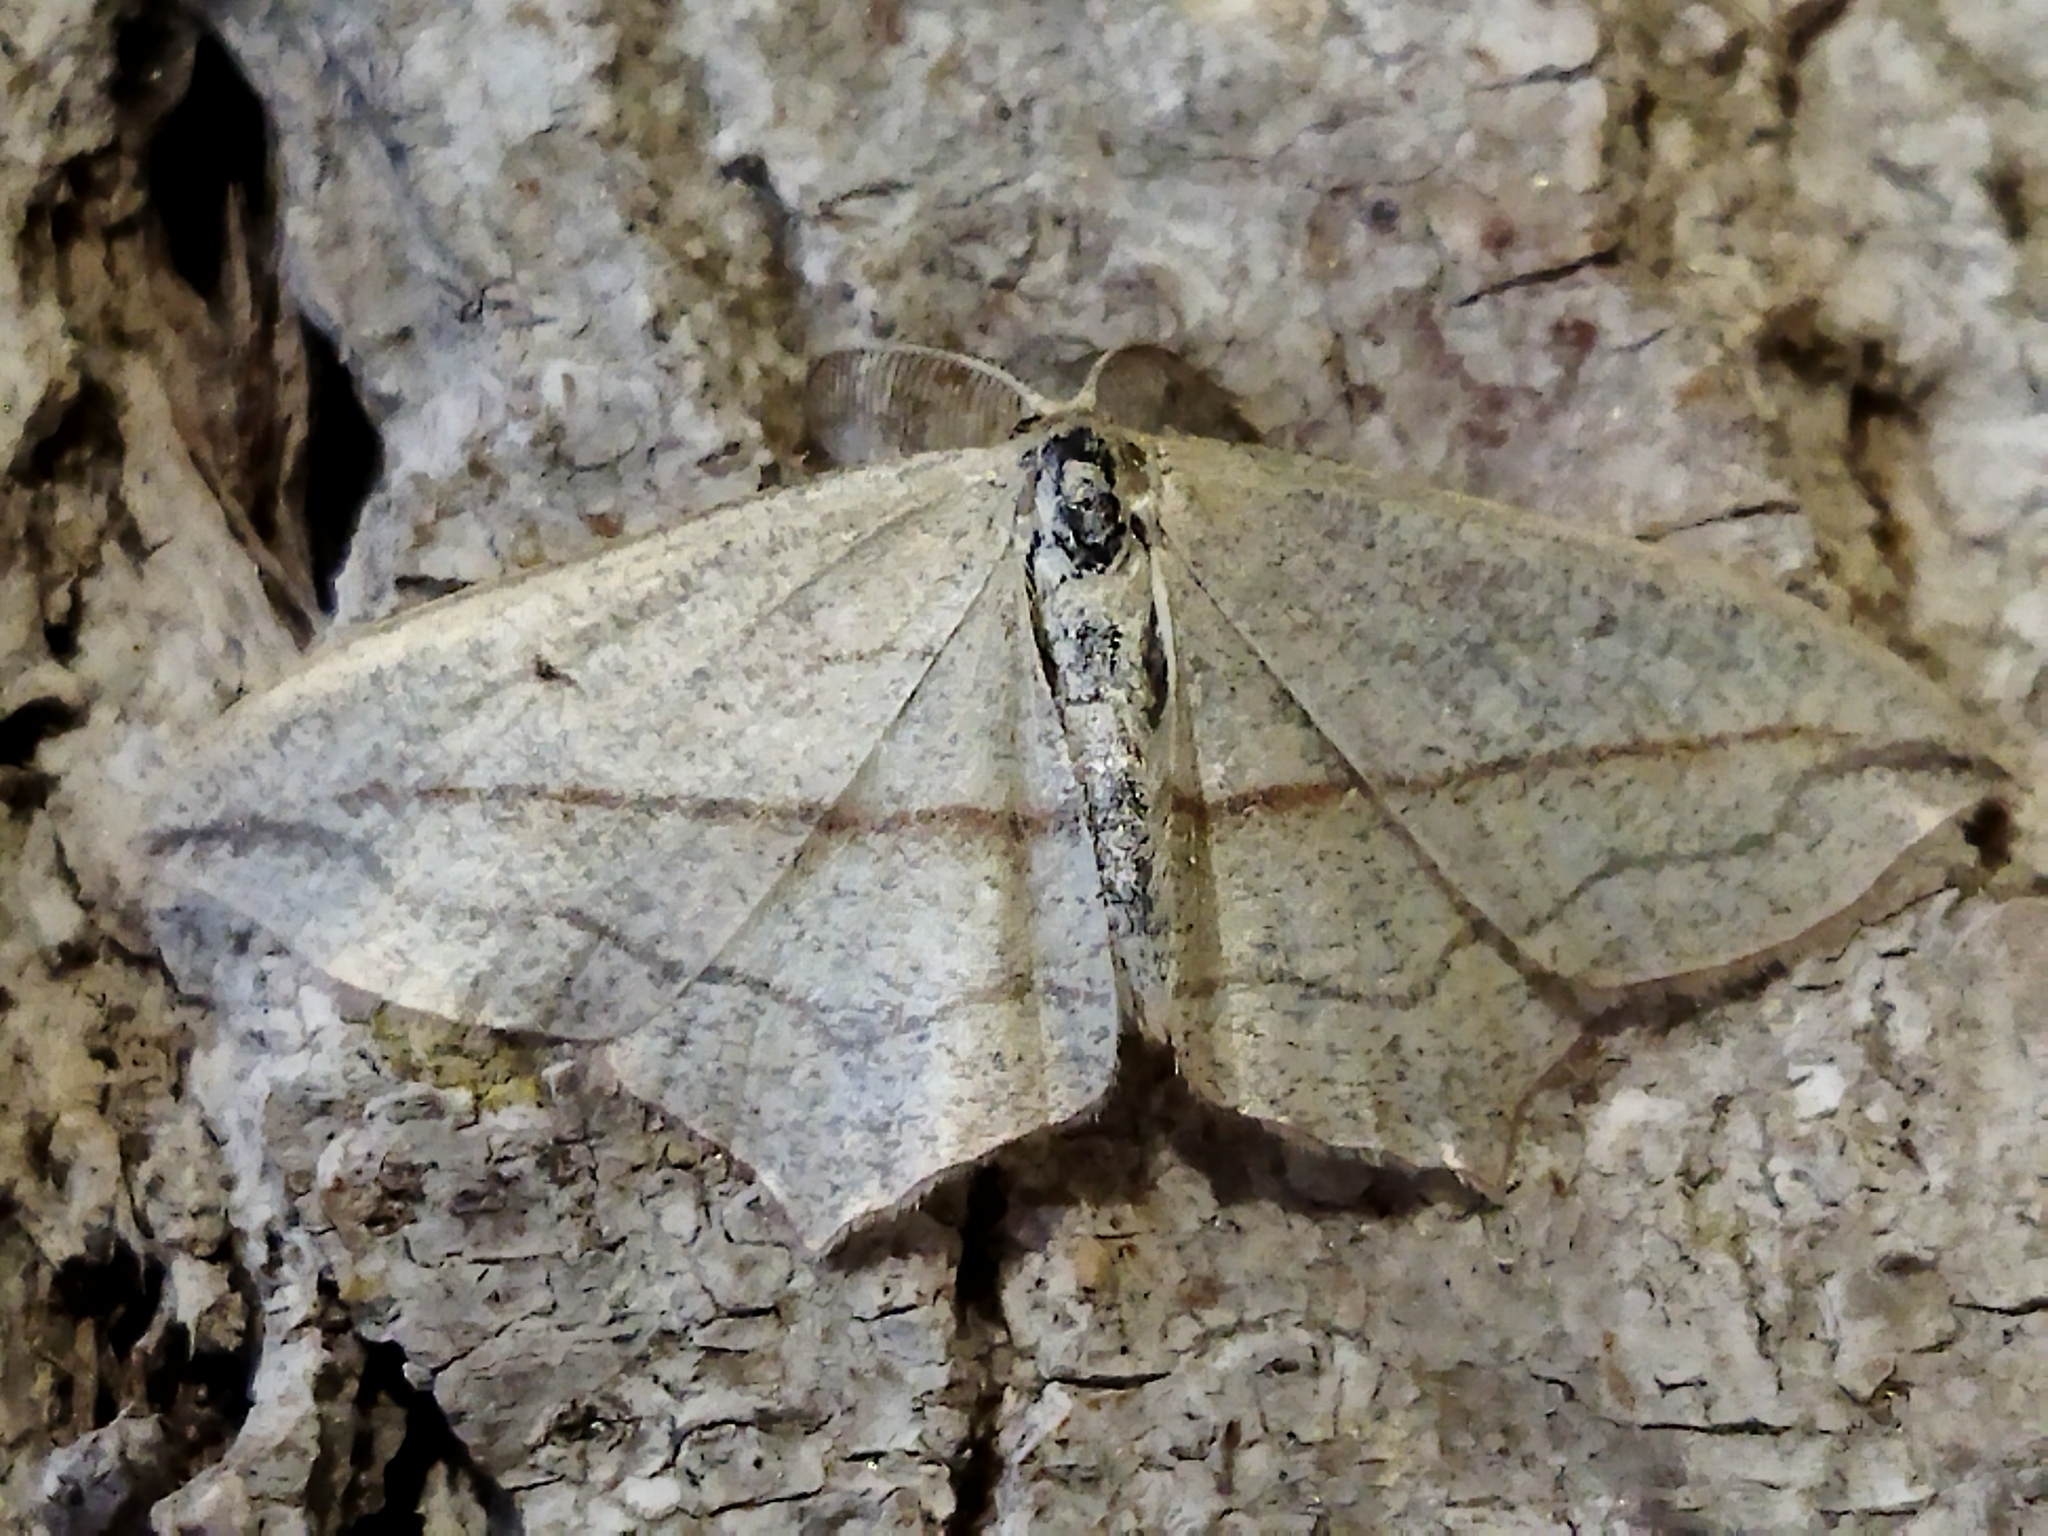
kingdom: Animalia
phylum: Arthropoda
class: Insecta
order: Lepidoptera
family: Geometridae
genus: Timandra
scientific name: Timandra comae
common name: Blood-vein
